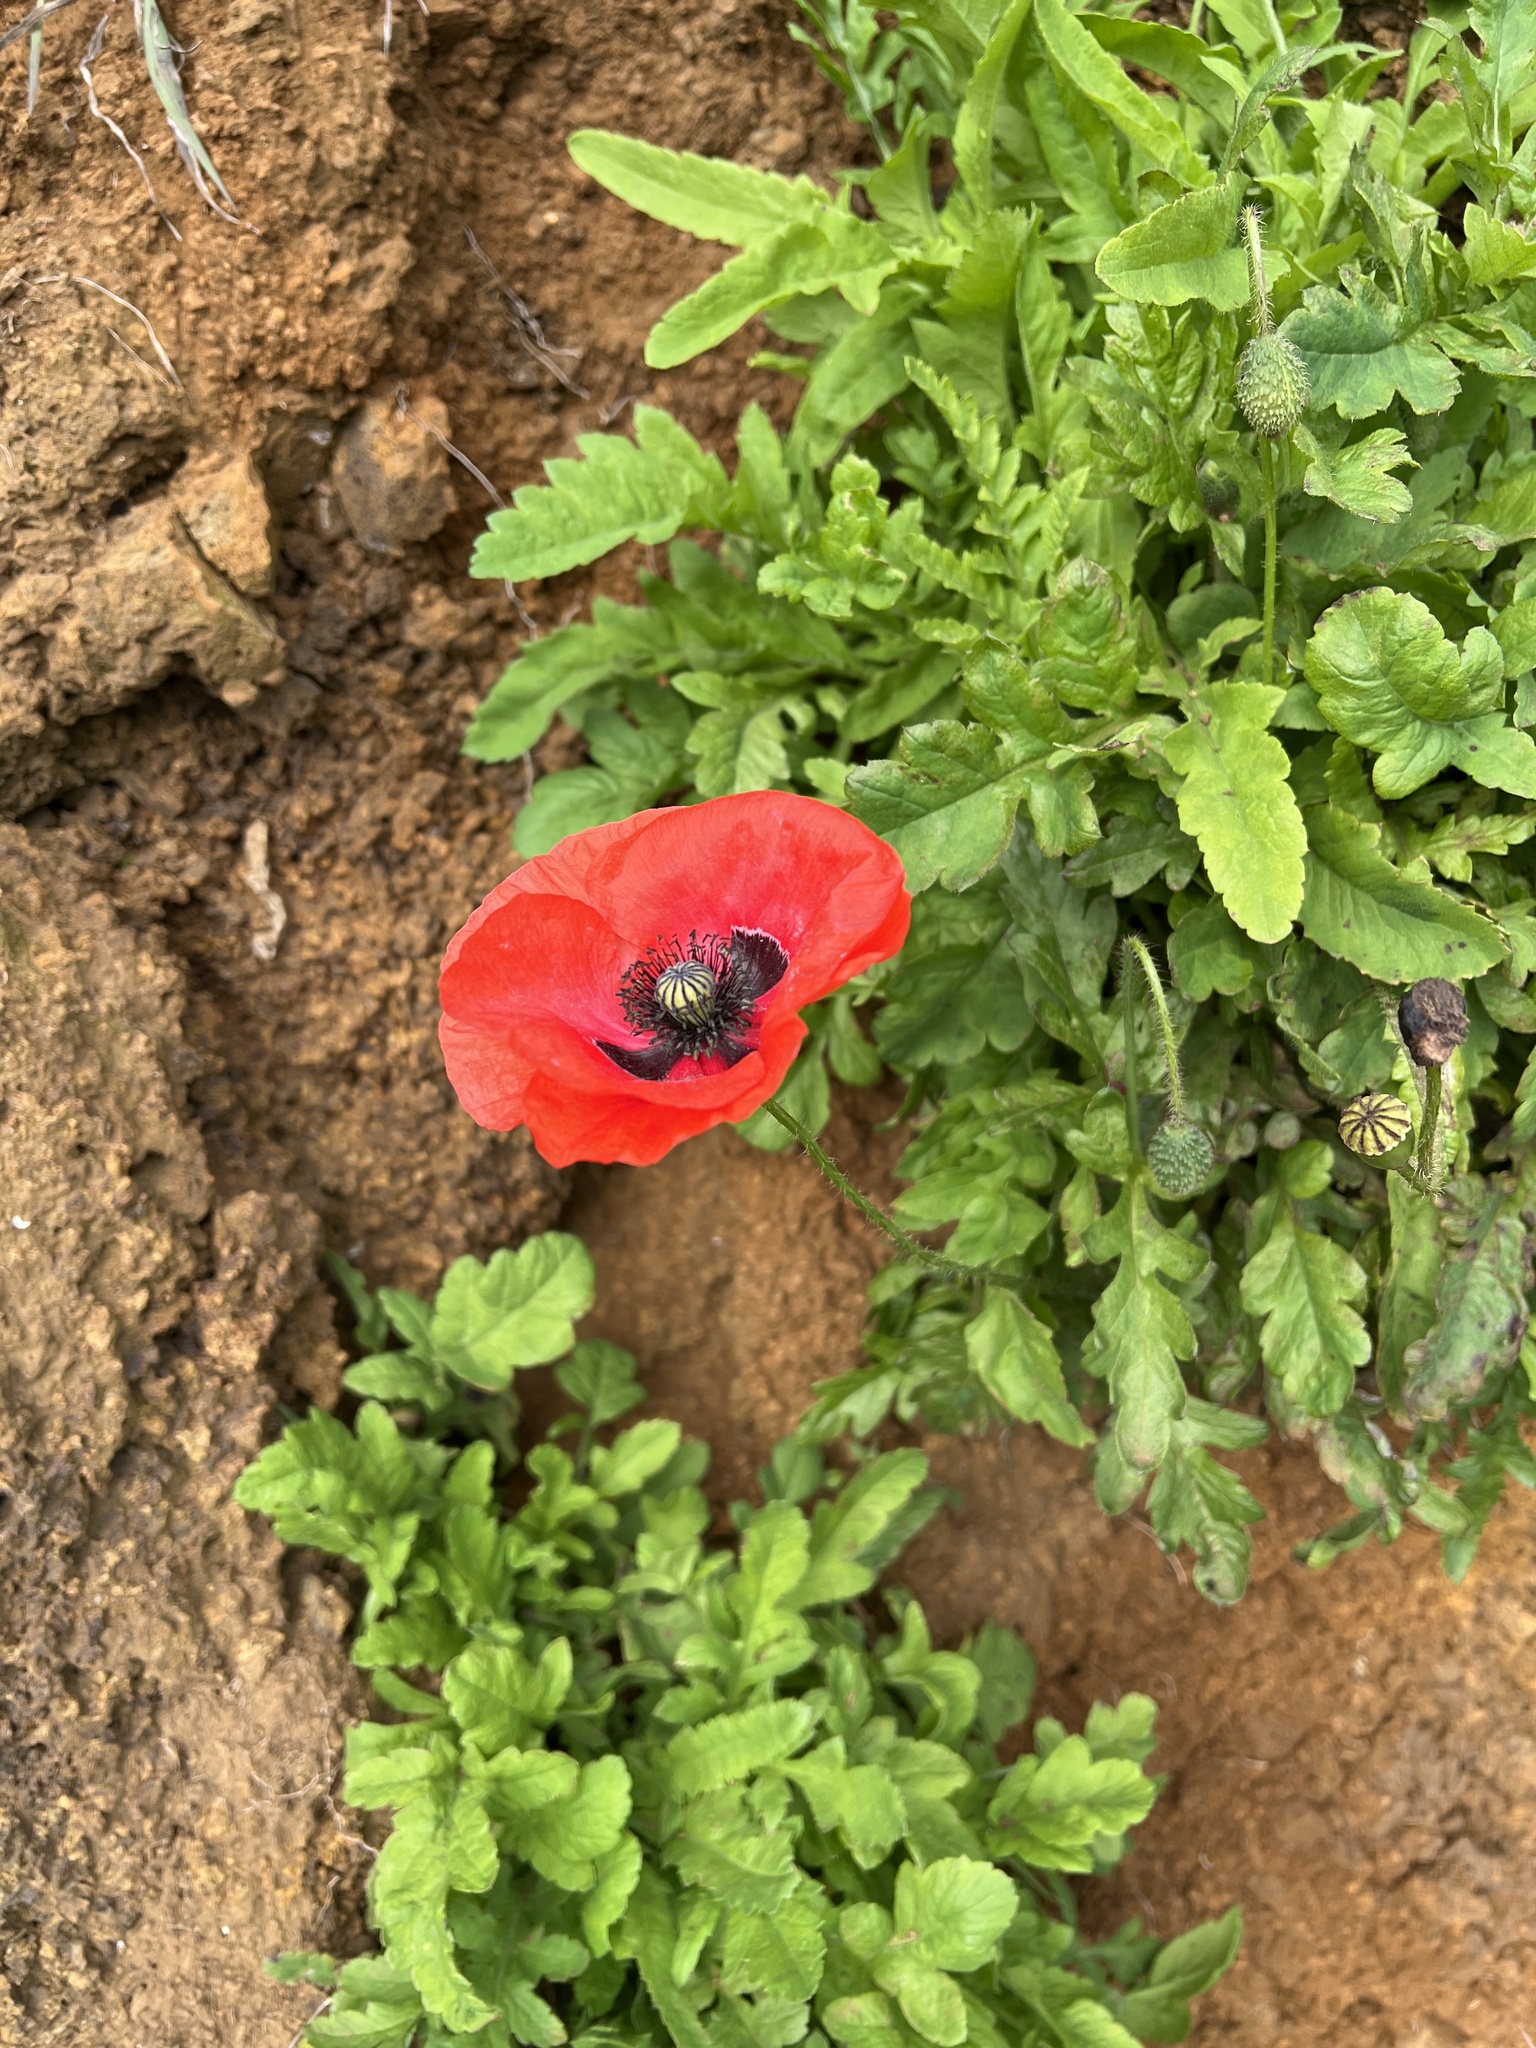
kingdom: Plantae
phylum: Tracheophyta
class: Magnoliopsida
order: Ranunculales
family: Papaveraceae
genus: Papaver
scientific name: Papaver rhoeas
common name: Corn poppy
